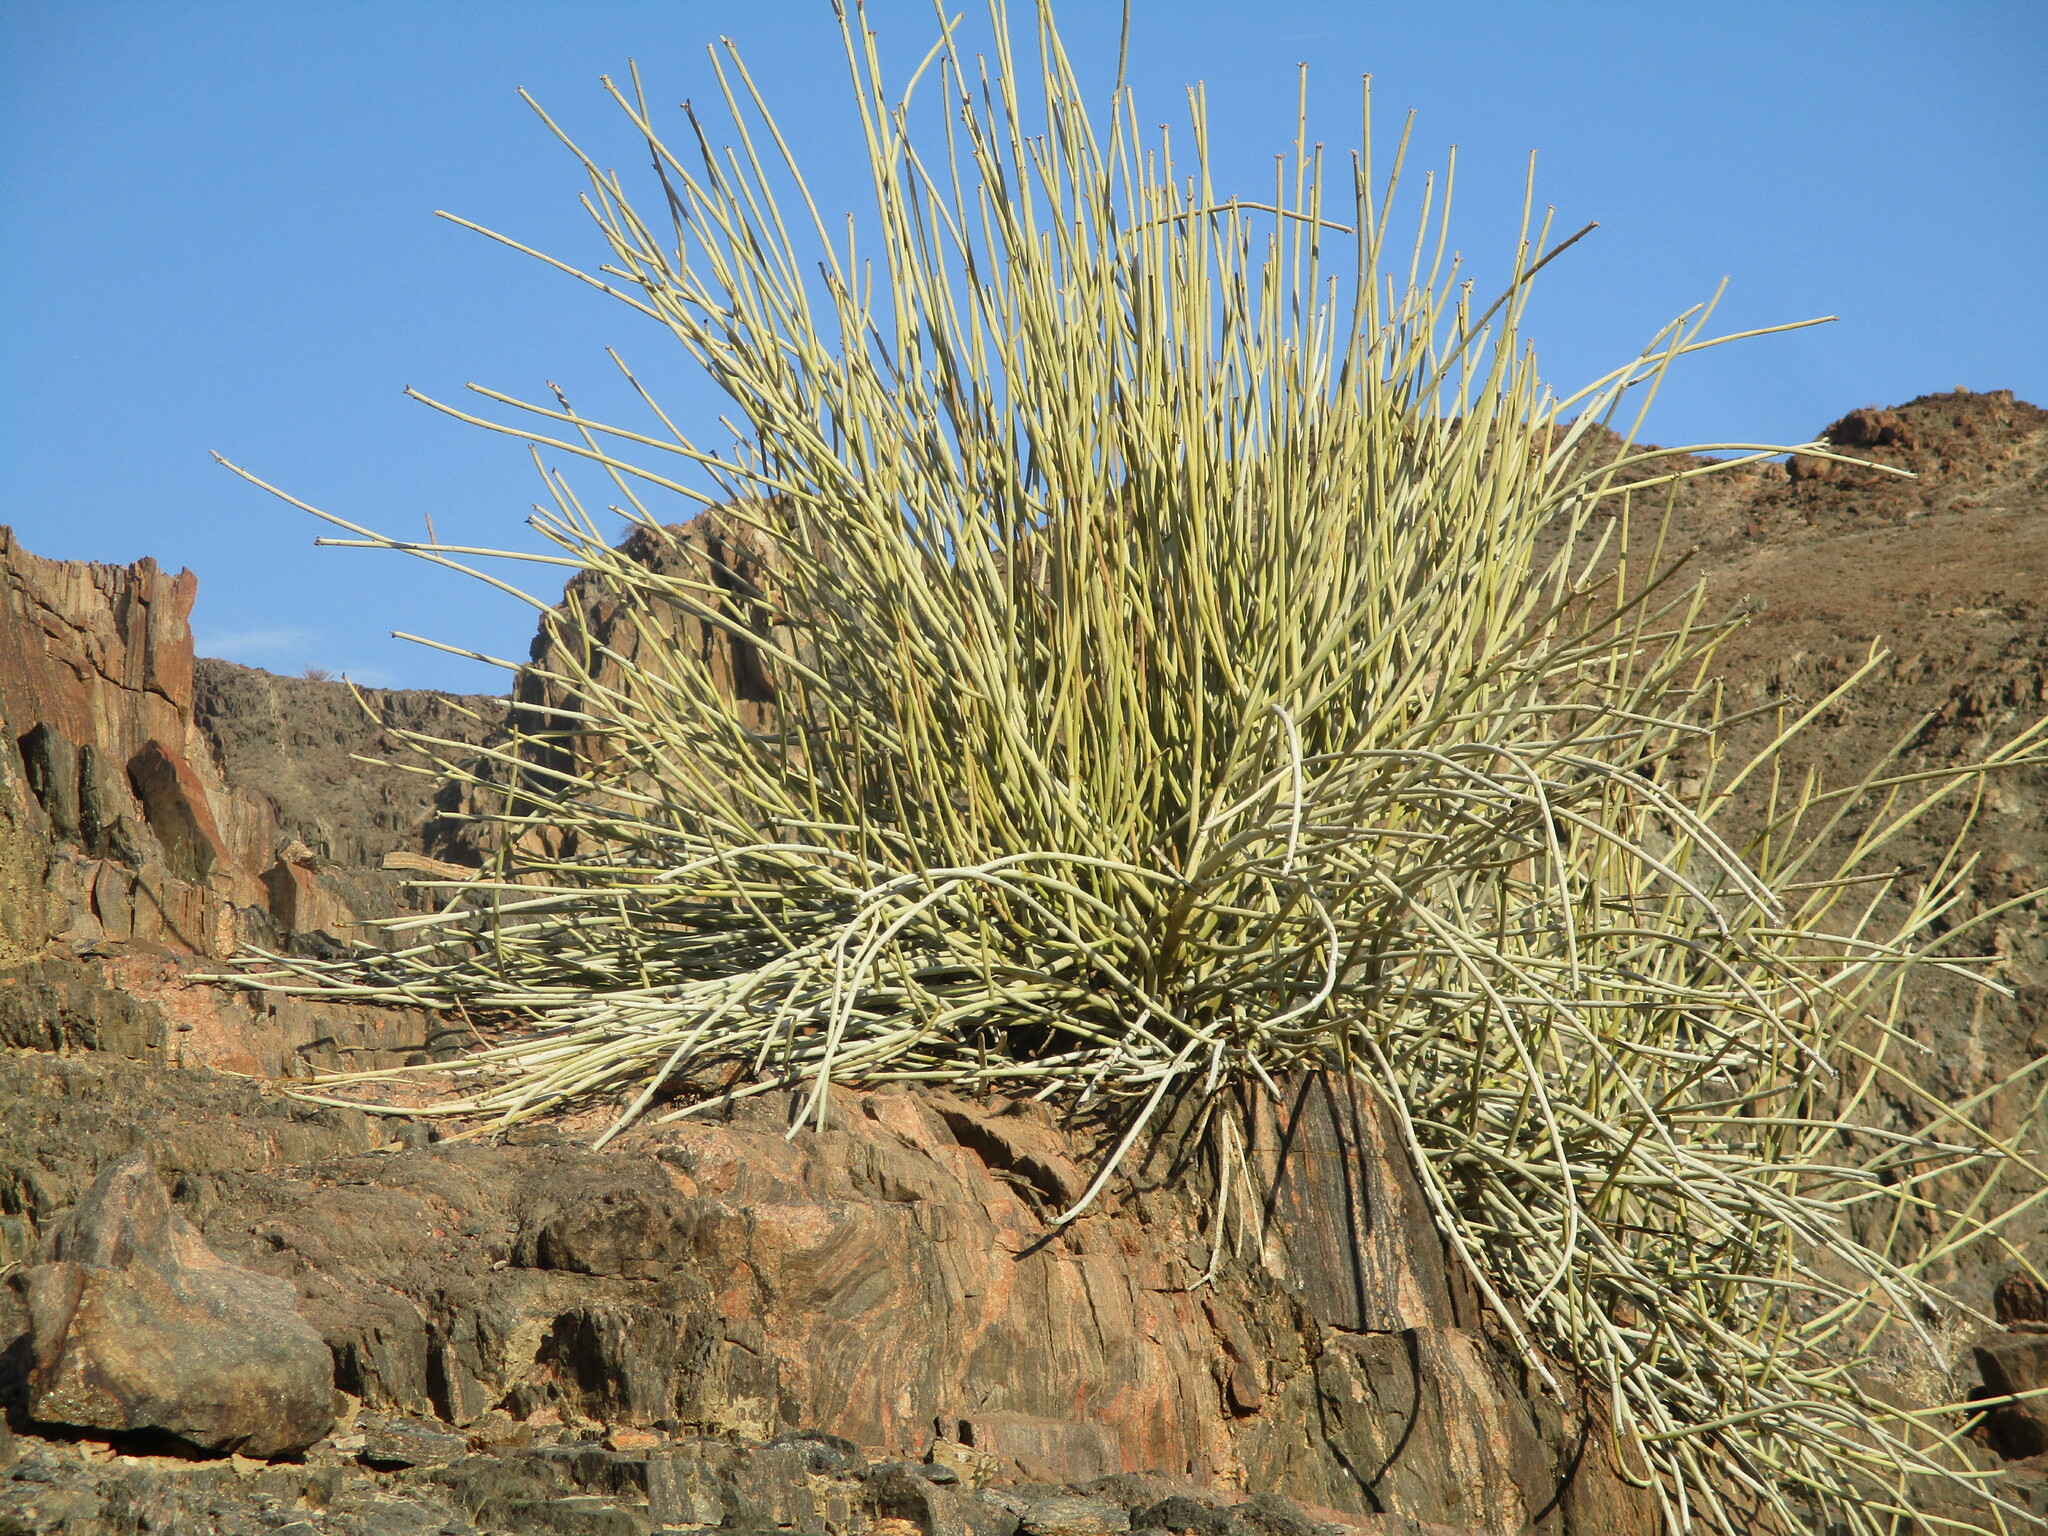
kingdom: Plantae
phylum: Tracheophyta
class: Magnoliopsida
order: Malpighiales
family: Euphorbiaceae
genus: Euphorbia
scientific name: Euphorbia damarana
